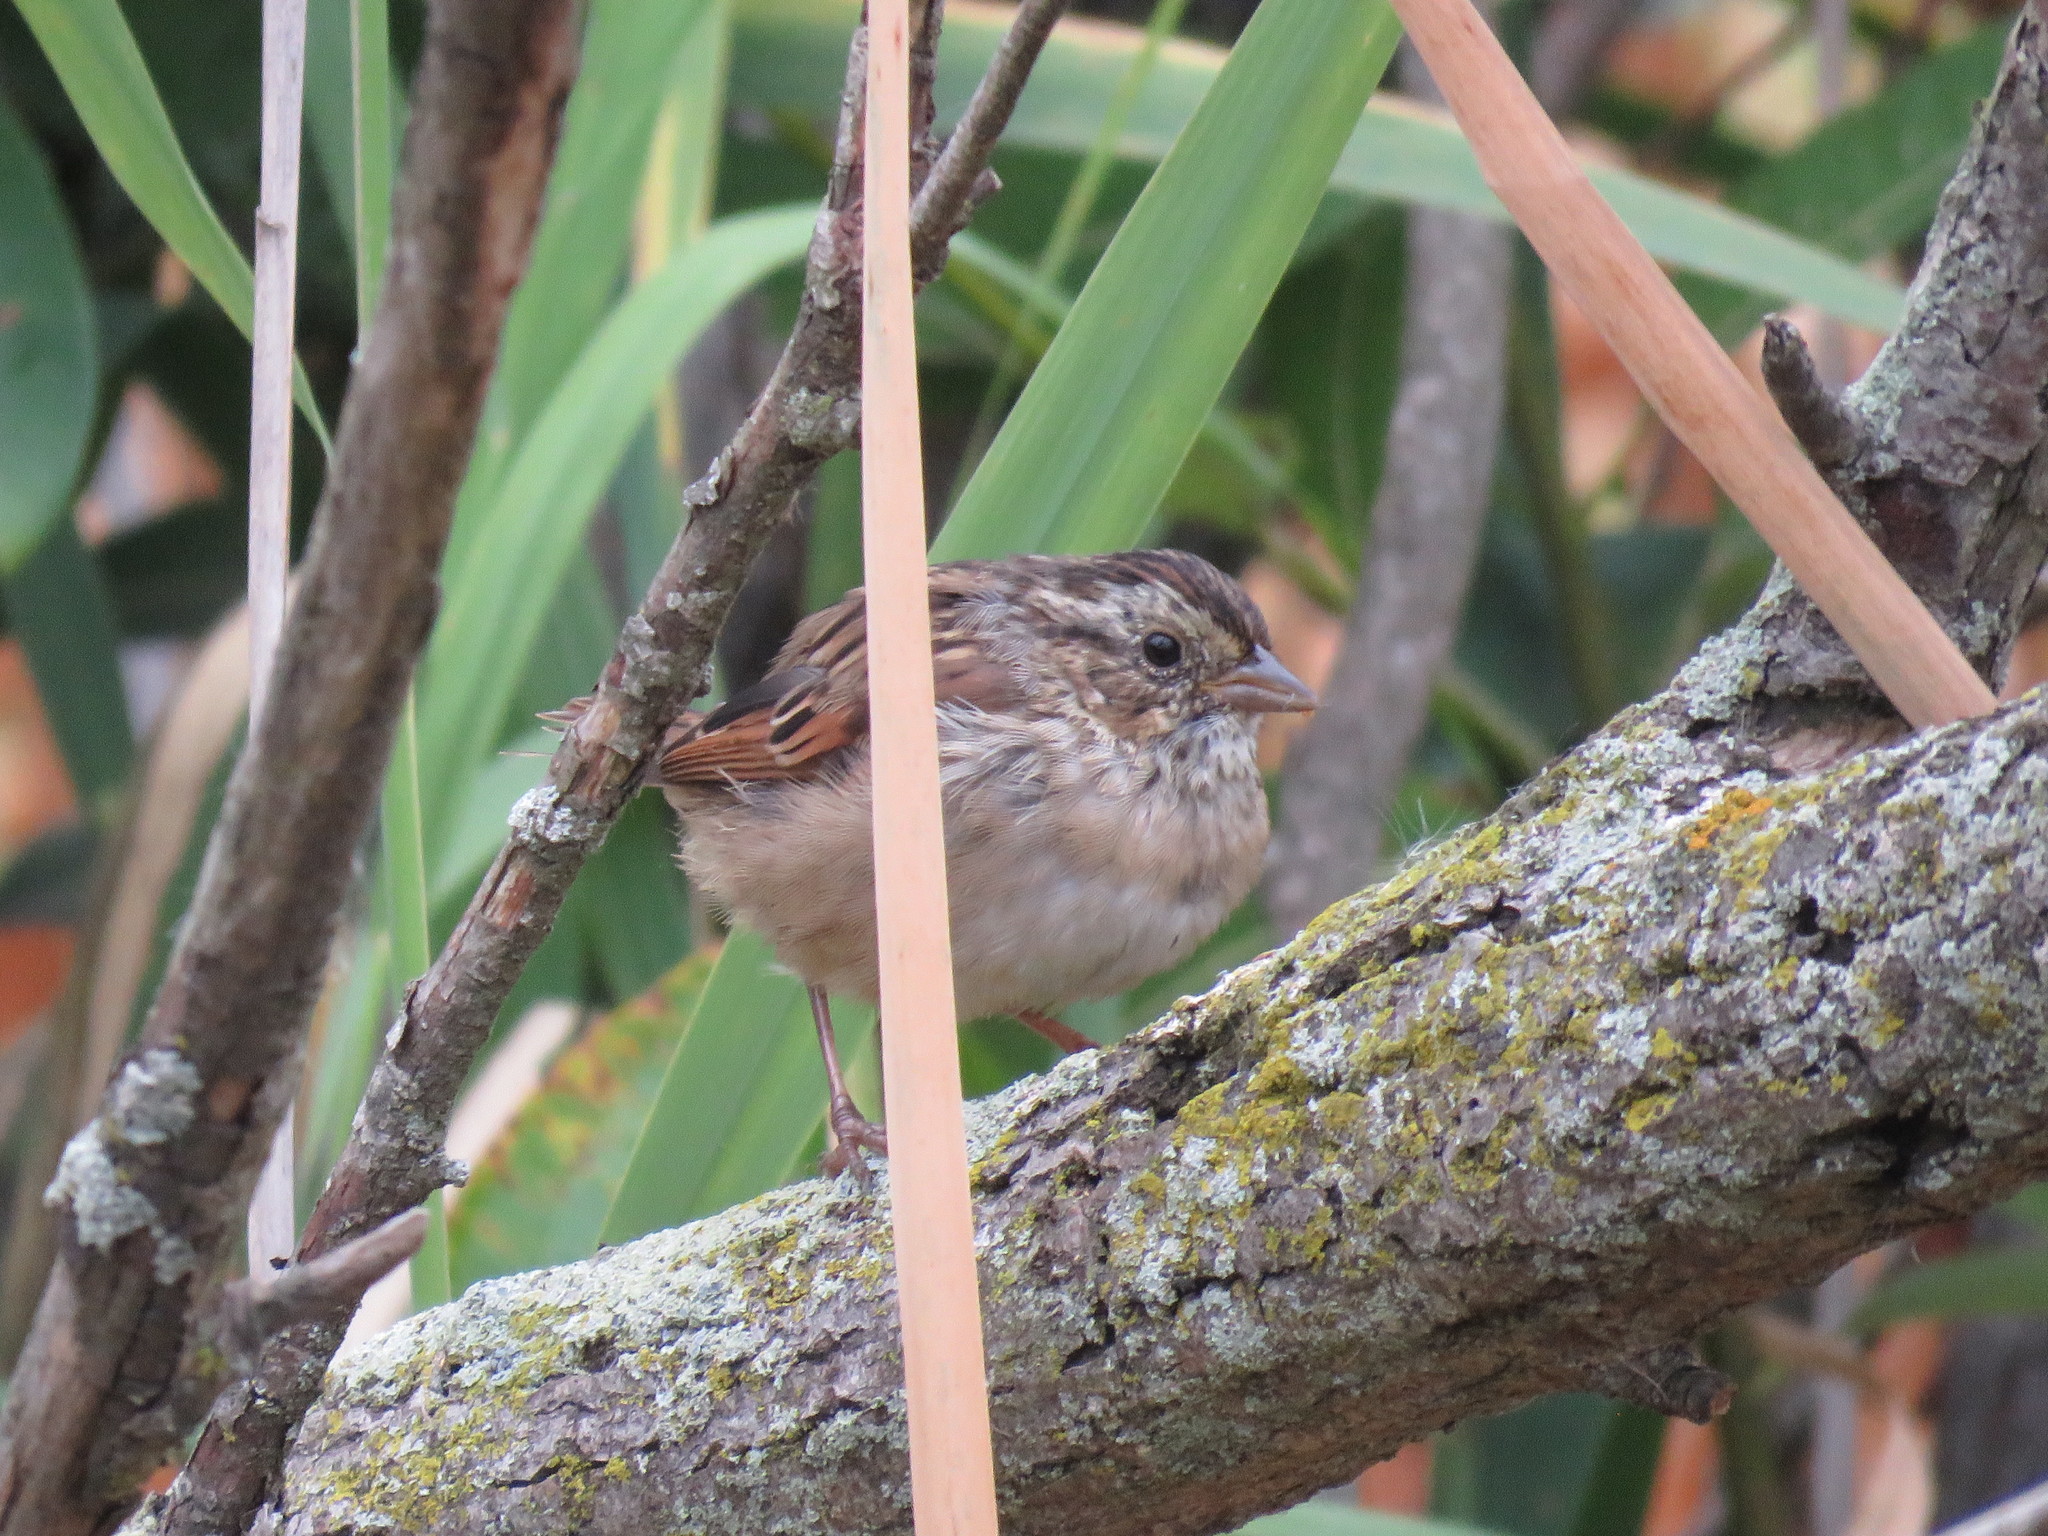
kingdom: Animalia
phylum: Chordata
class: Aves
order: Passeriformes
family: Passerellidae
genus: Melospiza
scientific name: Melospiza georgiana
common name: Swamp sparrow
